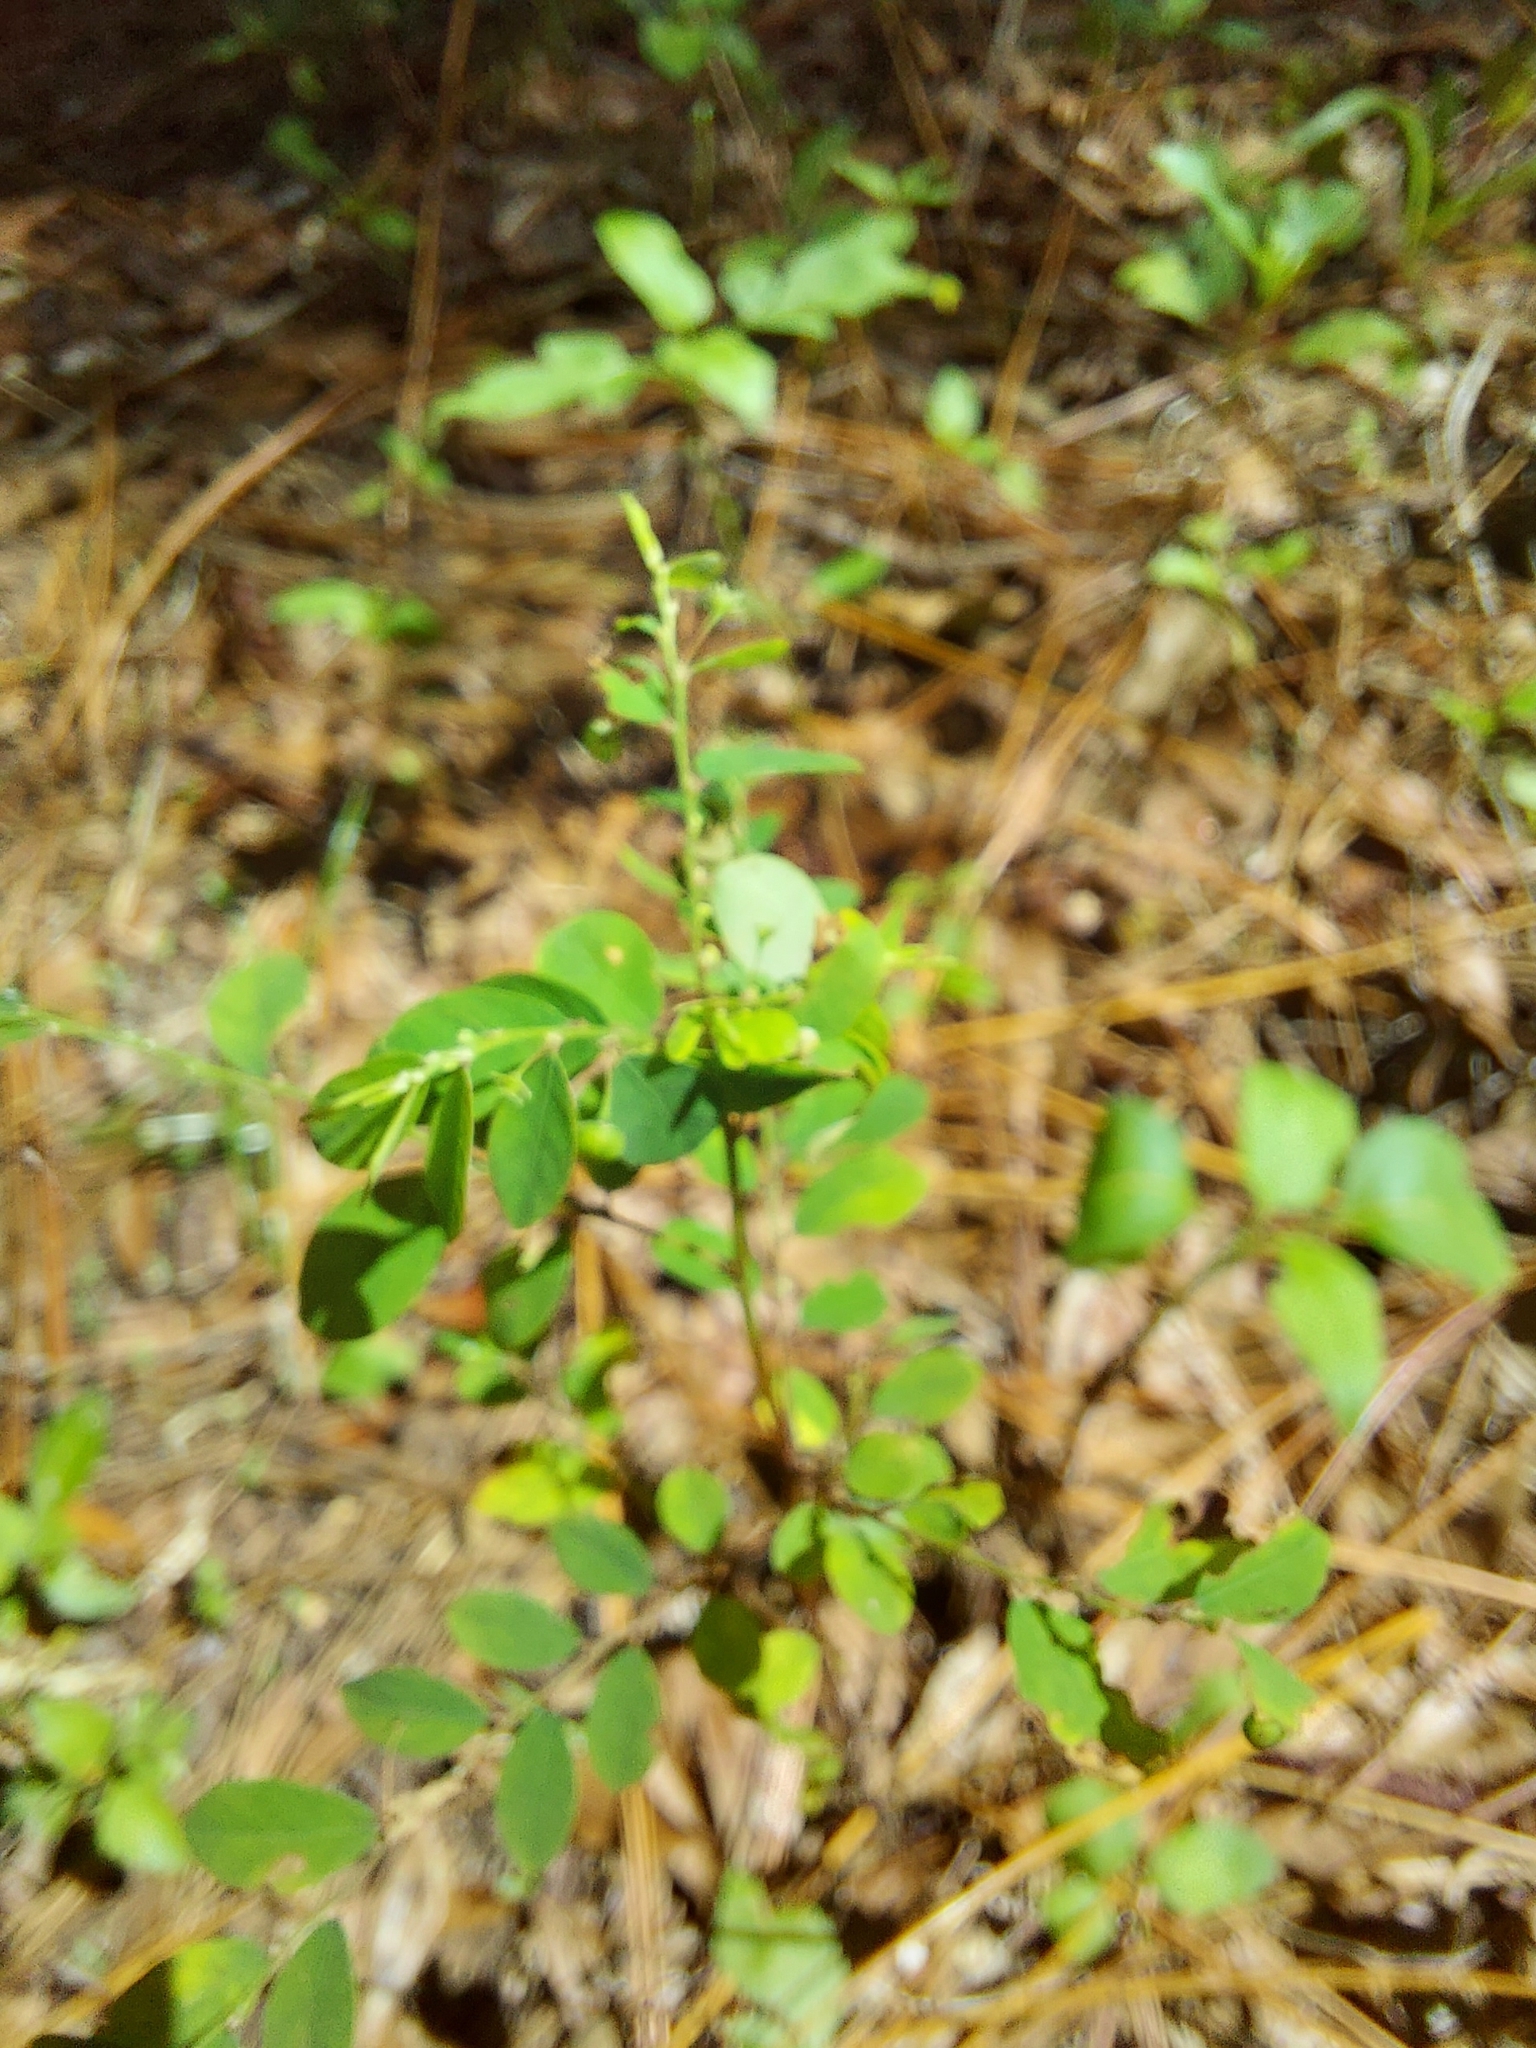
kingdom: Plantae
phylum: Tracheophyta
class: Magnoliopsida
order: Malpighiales
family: Phyllanthaceae
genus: Phyllanthus
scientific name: Phyllanthus tenellus
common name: Mascarene island leaf-flower
